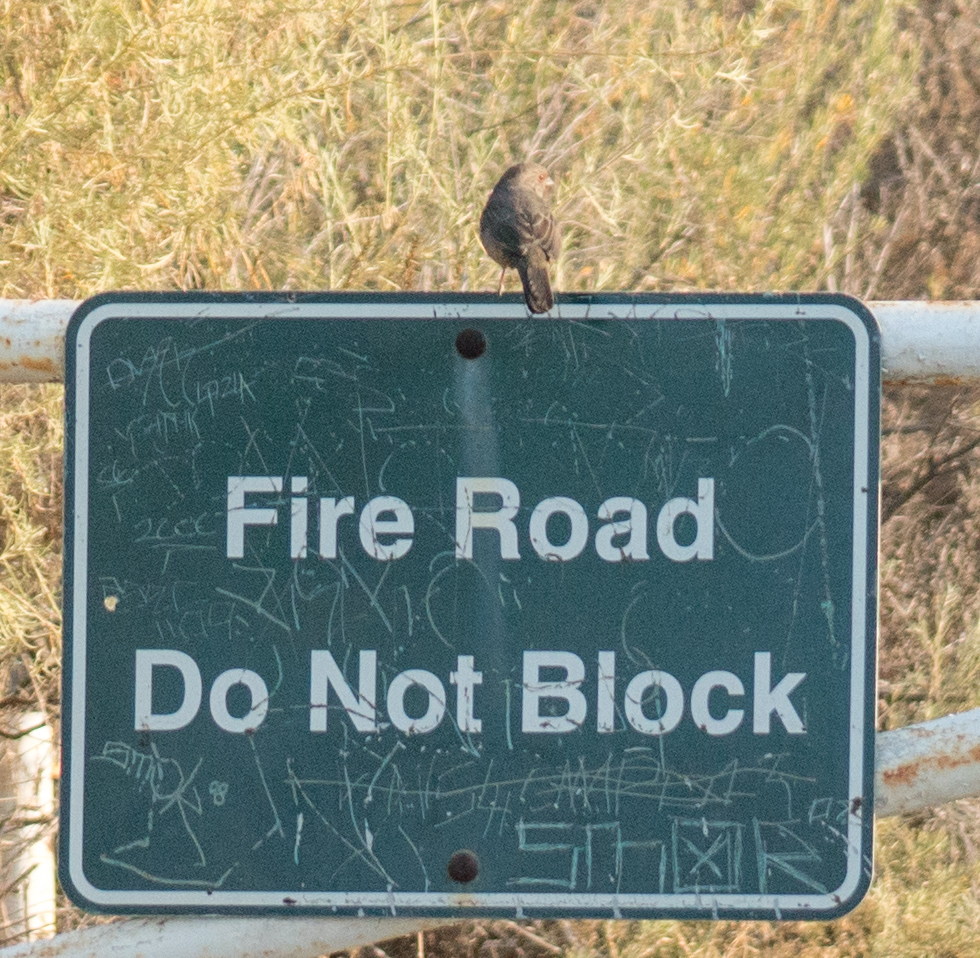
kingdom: Animalia
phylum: Chordata
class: Aves
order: Passeriformes
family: Passerellidae
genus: Melozone
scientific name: Melozone crissalis
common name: California towhee
